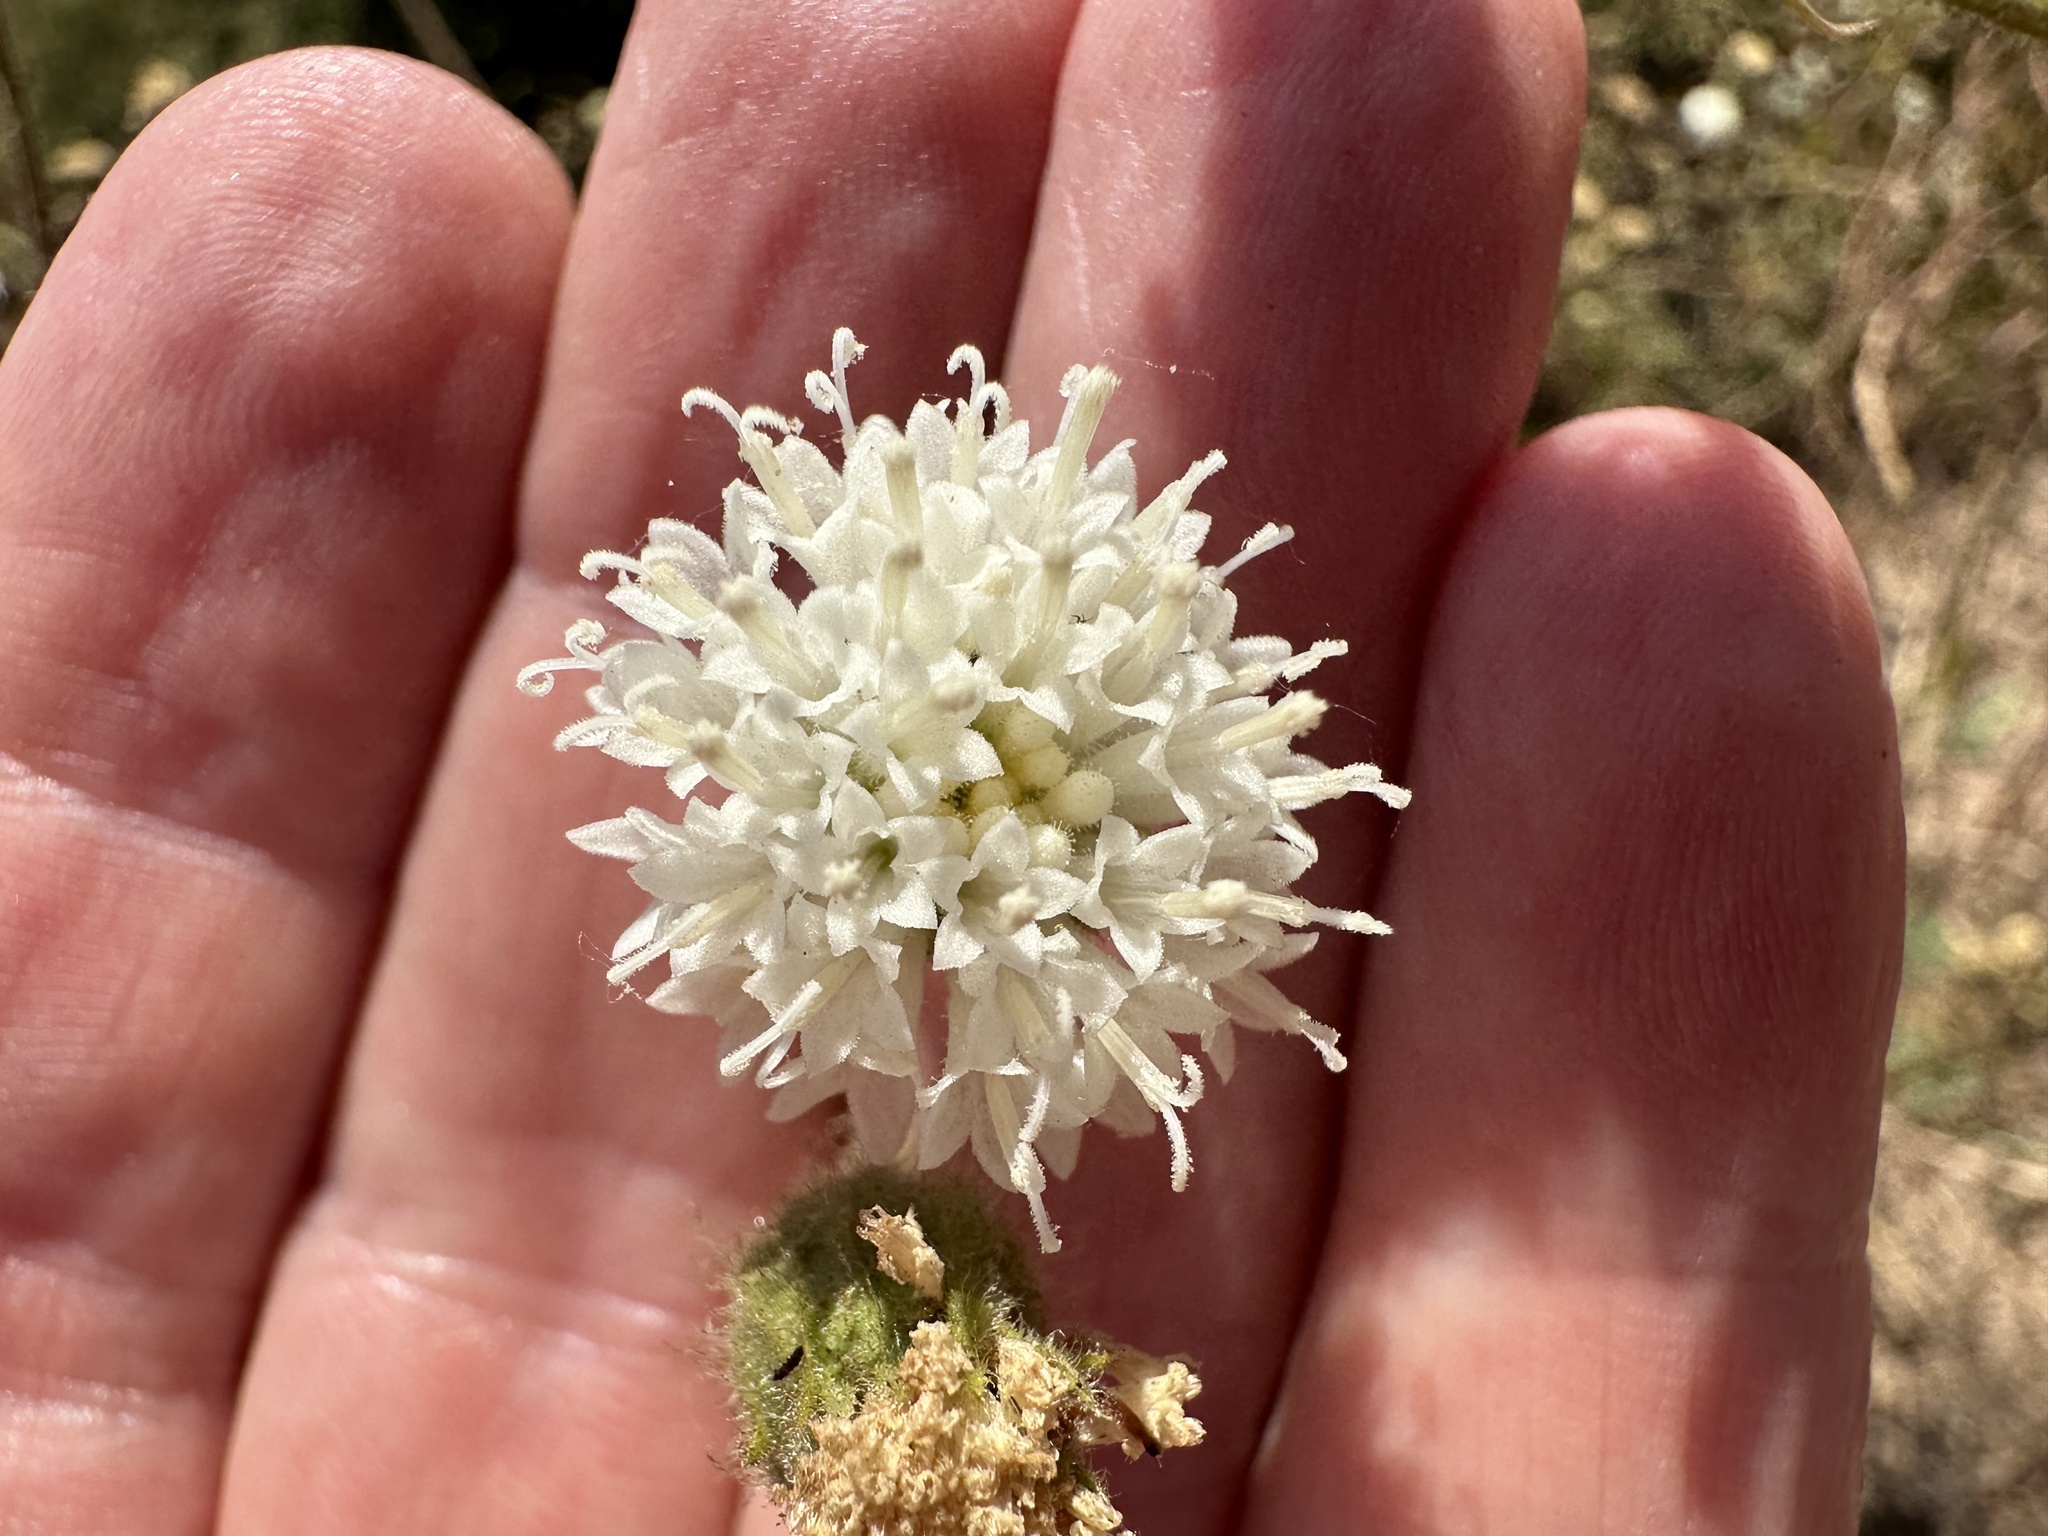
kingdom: Plantae
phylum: Tracheophyta
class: Magnoliopsida
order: Asterales
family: Asteraceae
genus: Chaenactis
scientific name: Chaenactis artemisiifolia
